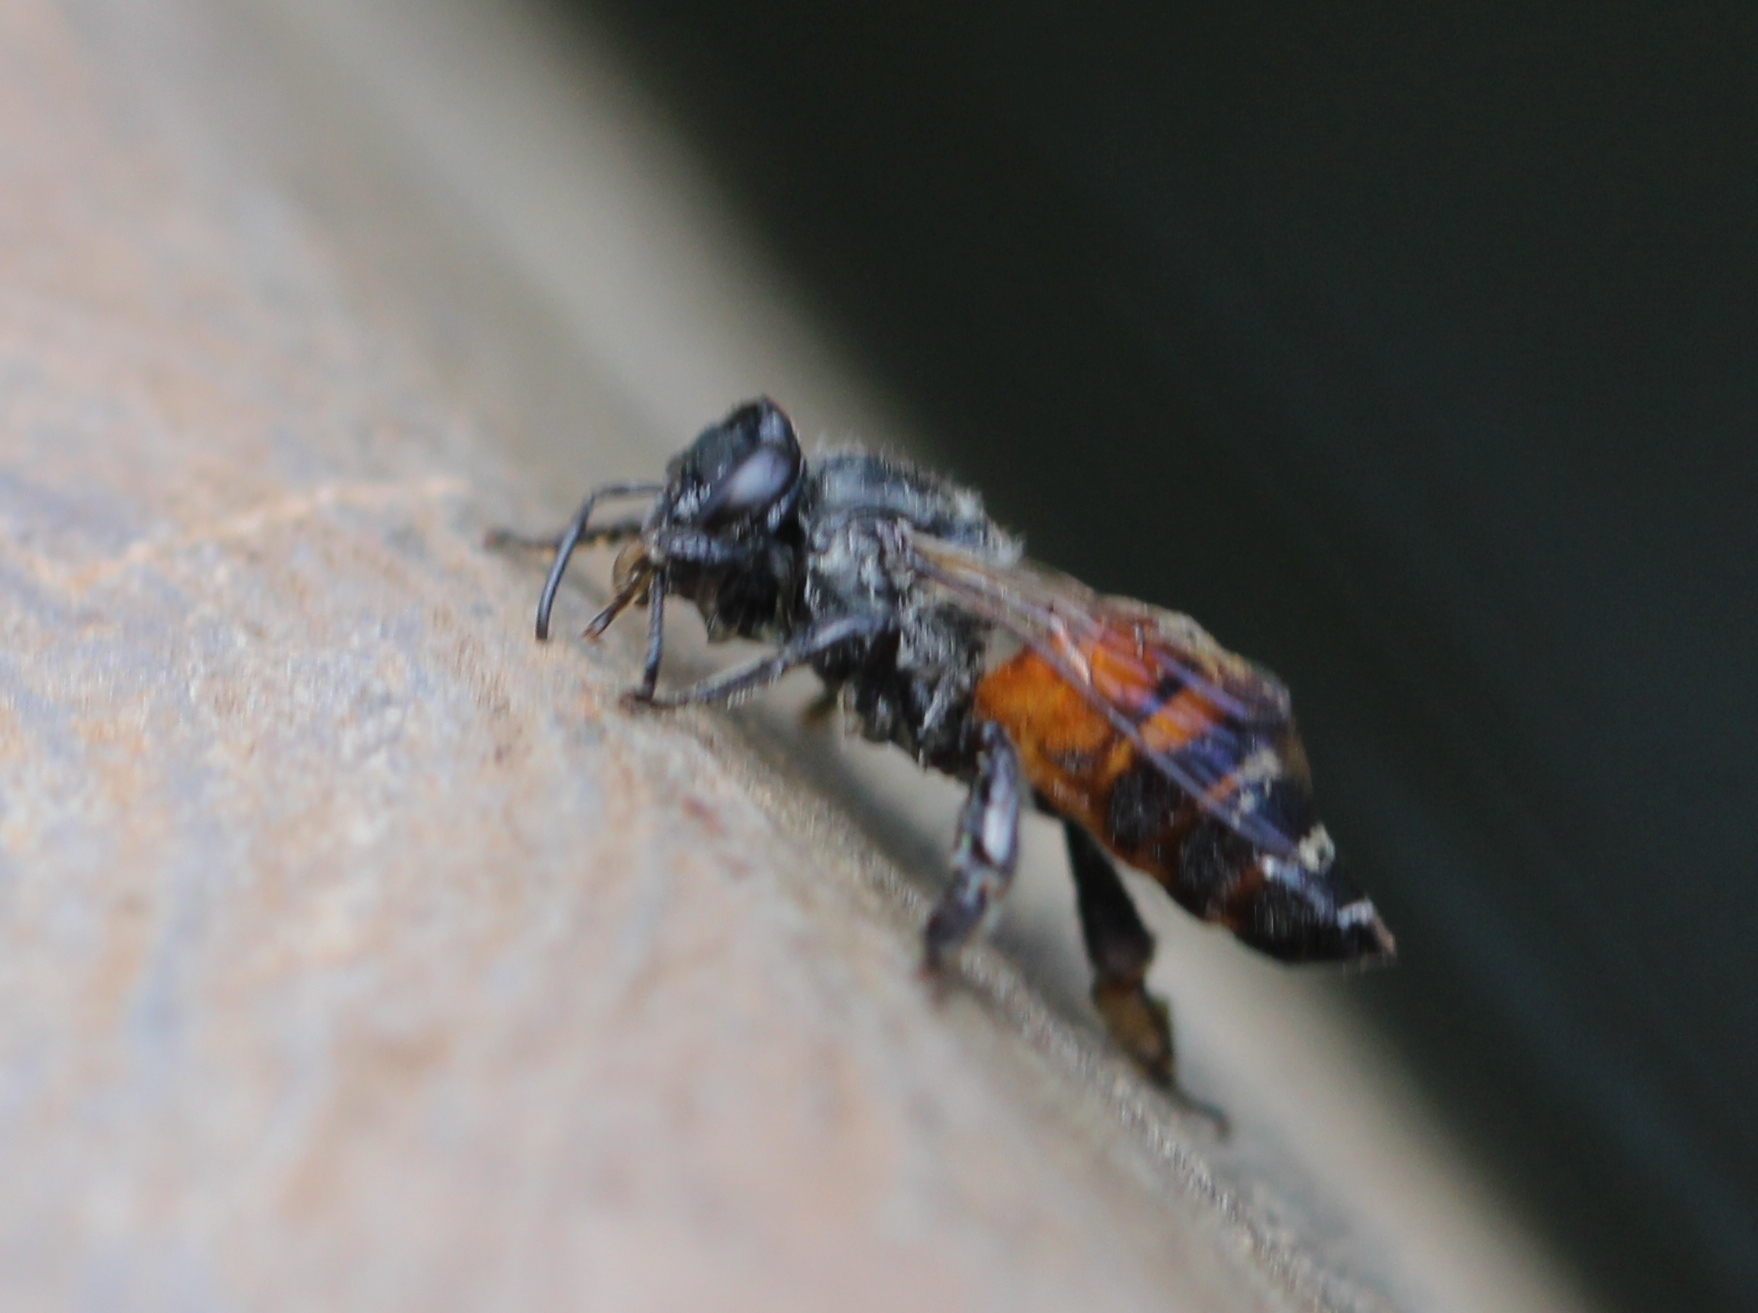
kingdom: Animalia
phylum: Arthropoda
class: Insecta
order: Hymenoptera
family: Apidae
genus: Apis
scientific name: Apis florea
